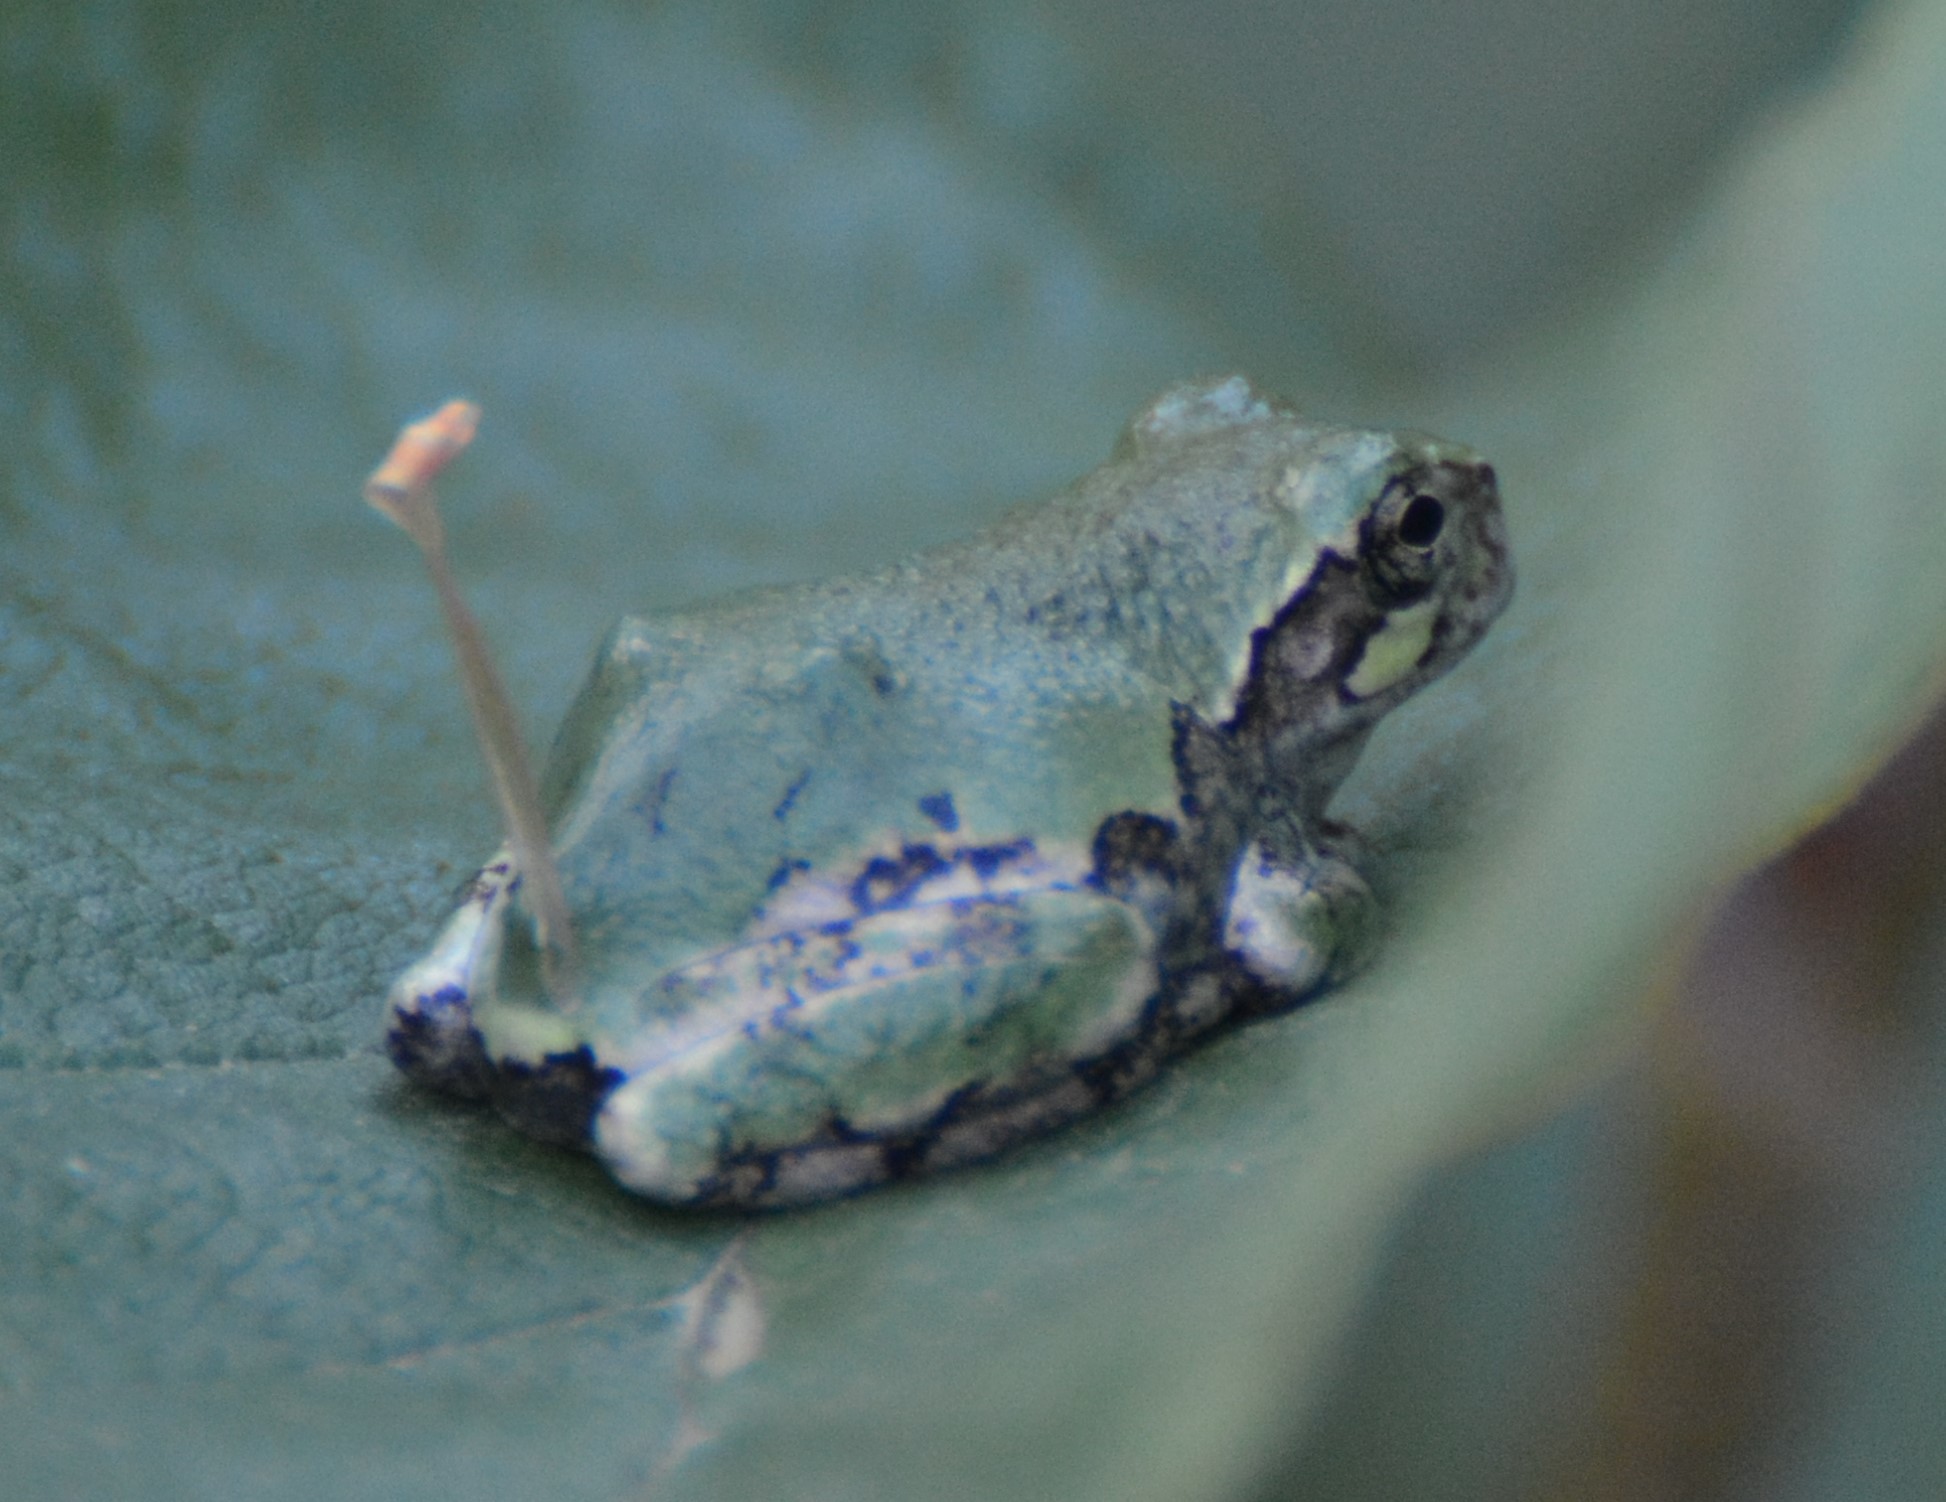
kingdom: Animalia
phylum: Chordata
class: Amphibia
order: Anura
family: Hylidae
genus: Dryophytes
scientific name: Dryophytes versicolor
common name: Gray treefrog
